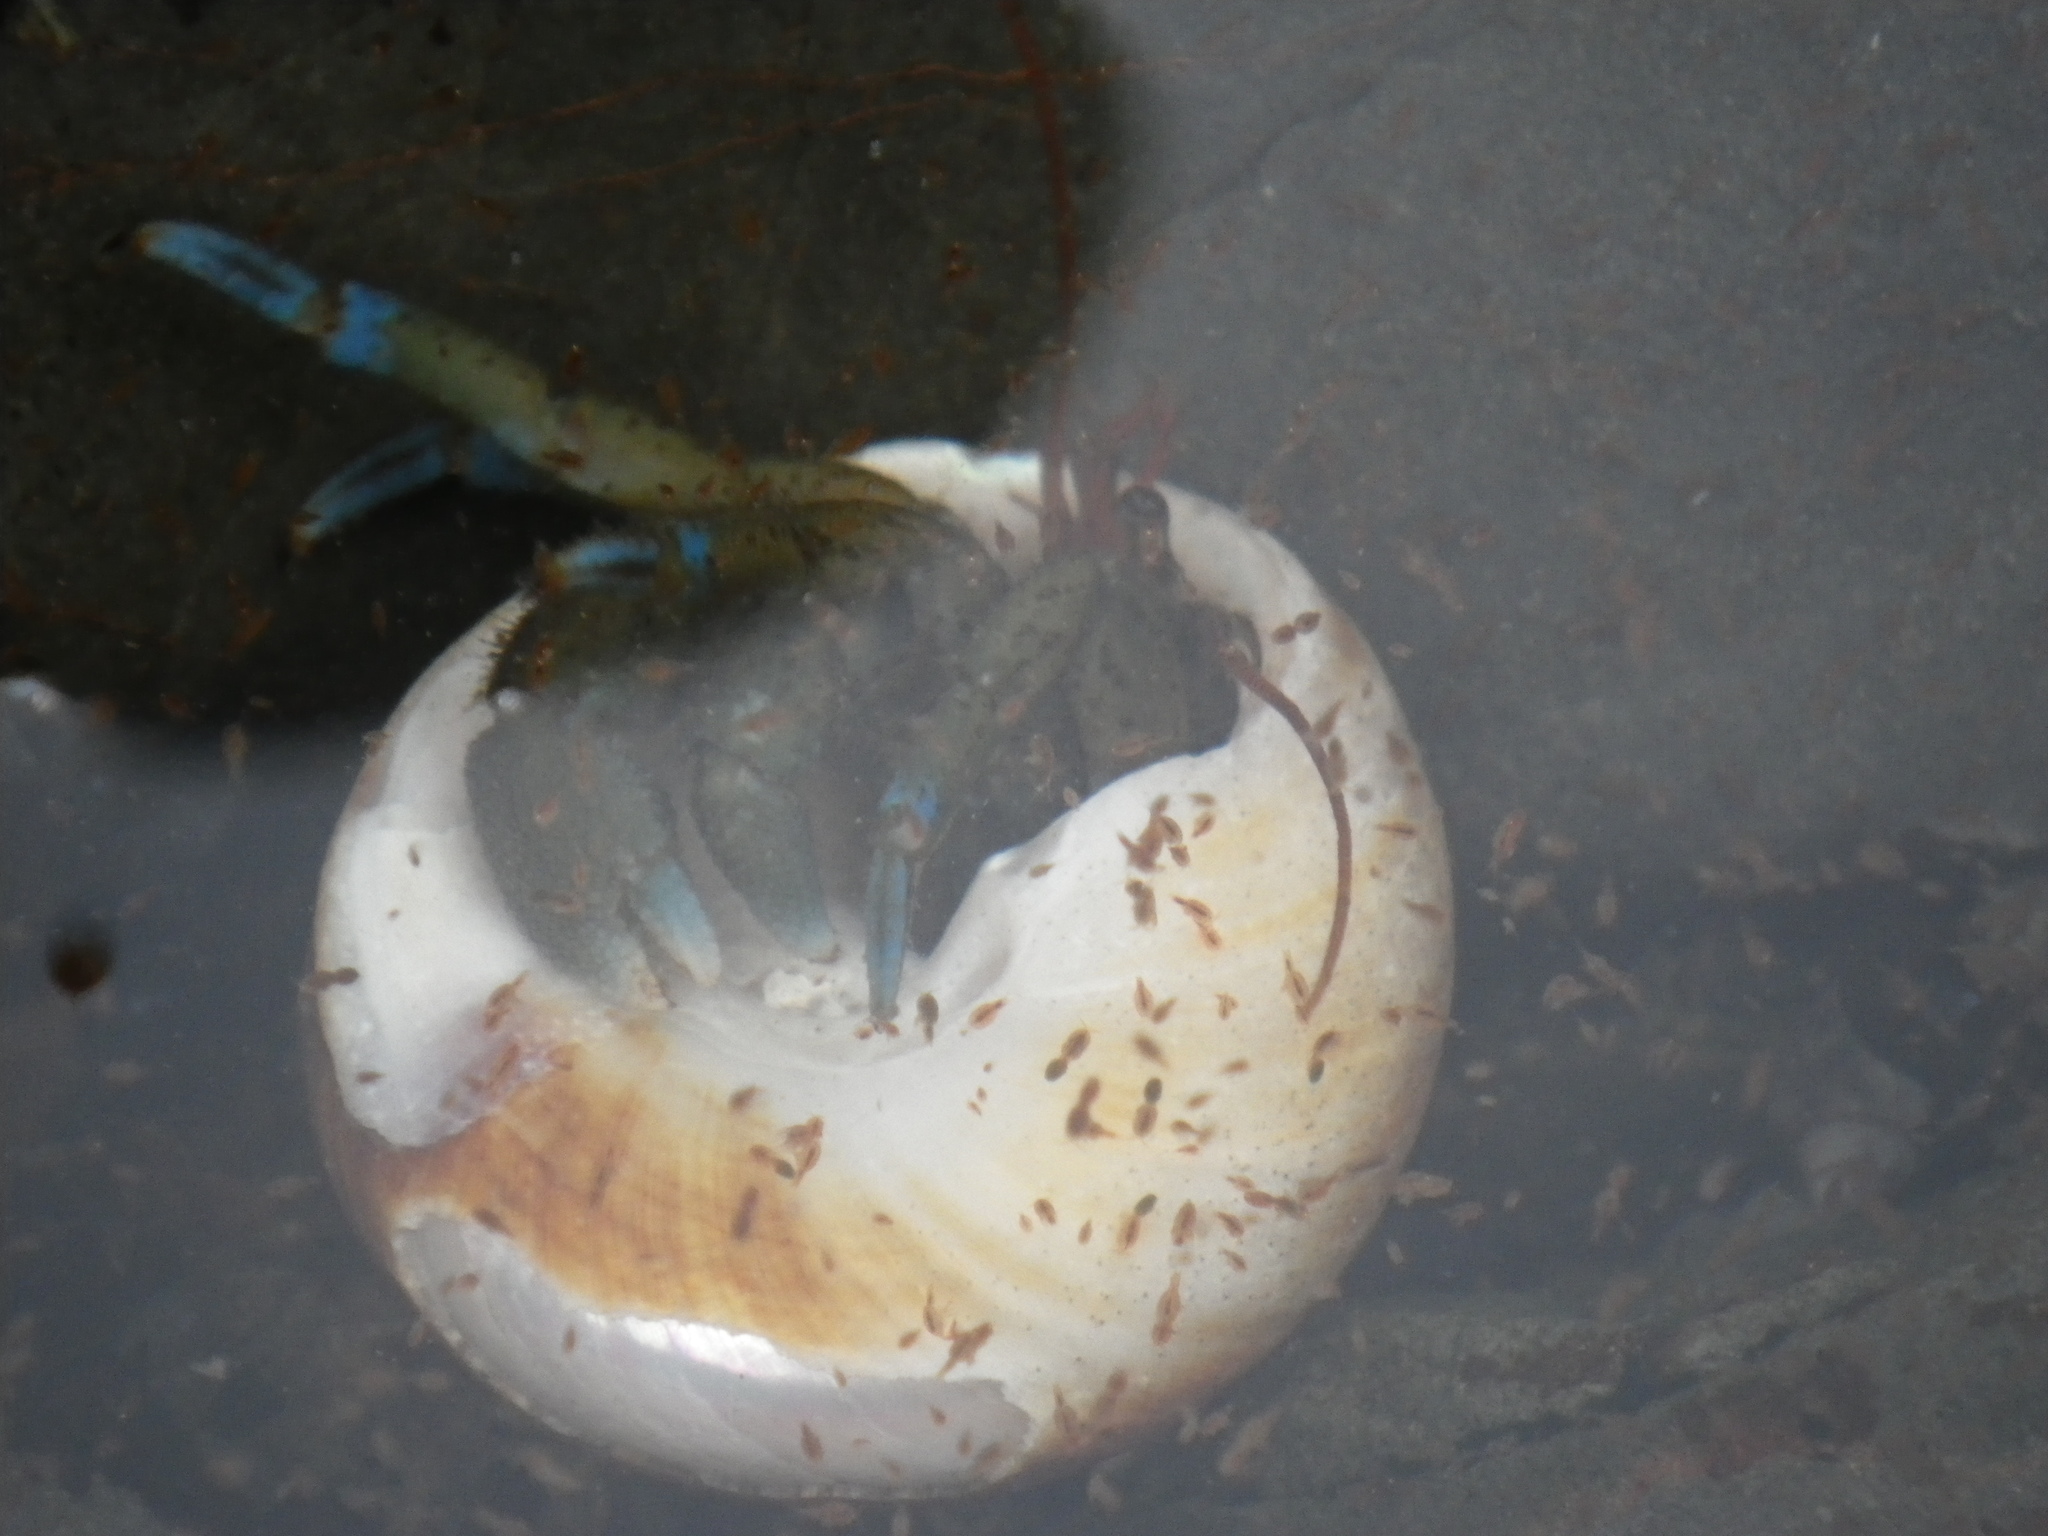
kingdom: Animalia
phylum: Arthropoda
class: Malacostraca
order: Decapoda
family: Paguridae
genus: Pagurus
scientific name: Pagurus samuelis
